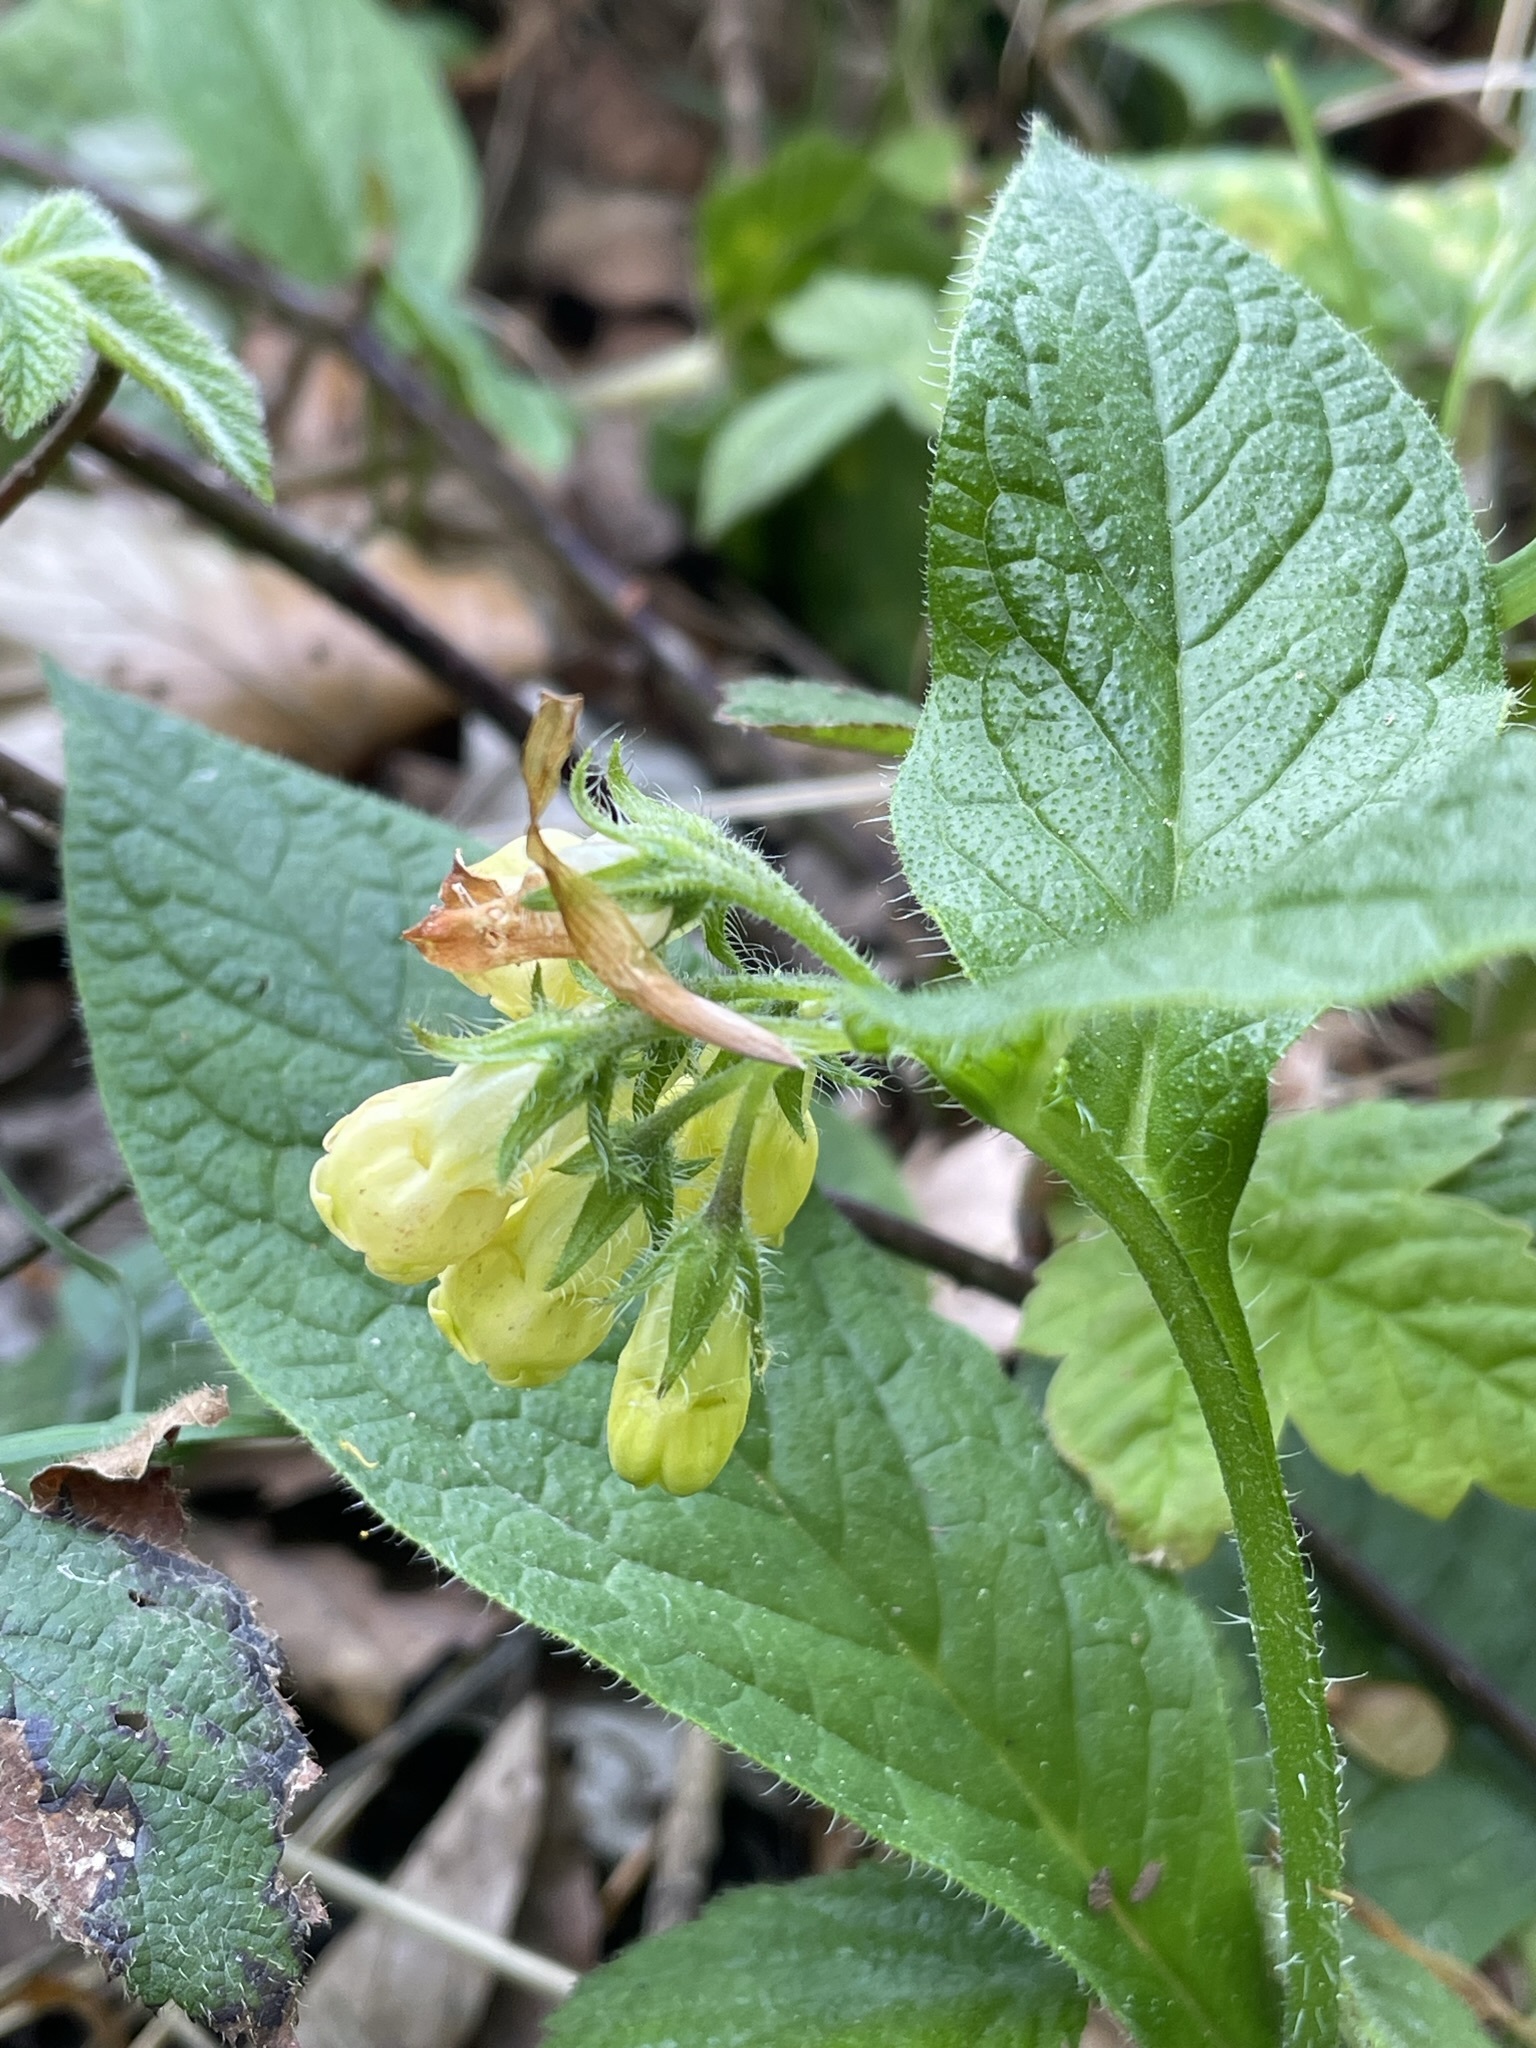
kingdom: Plantae
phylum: Tracheophyta
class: Magnoliopsida
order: Boraginales
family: Boraginaceae
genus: Symphytum
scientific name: Symphytum tuberosum
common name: Tuberous comfrey
